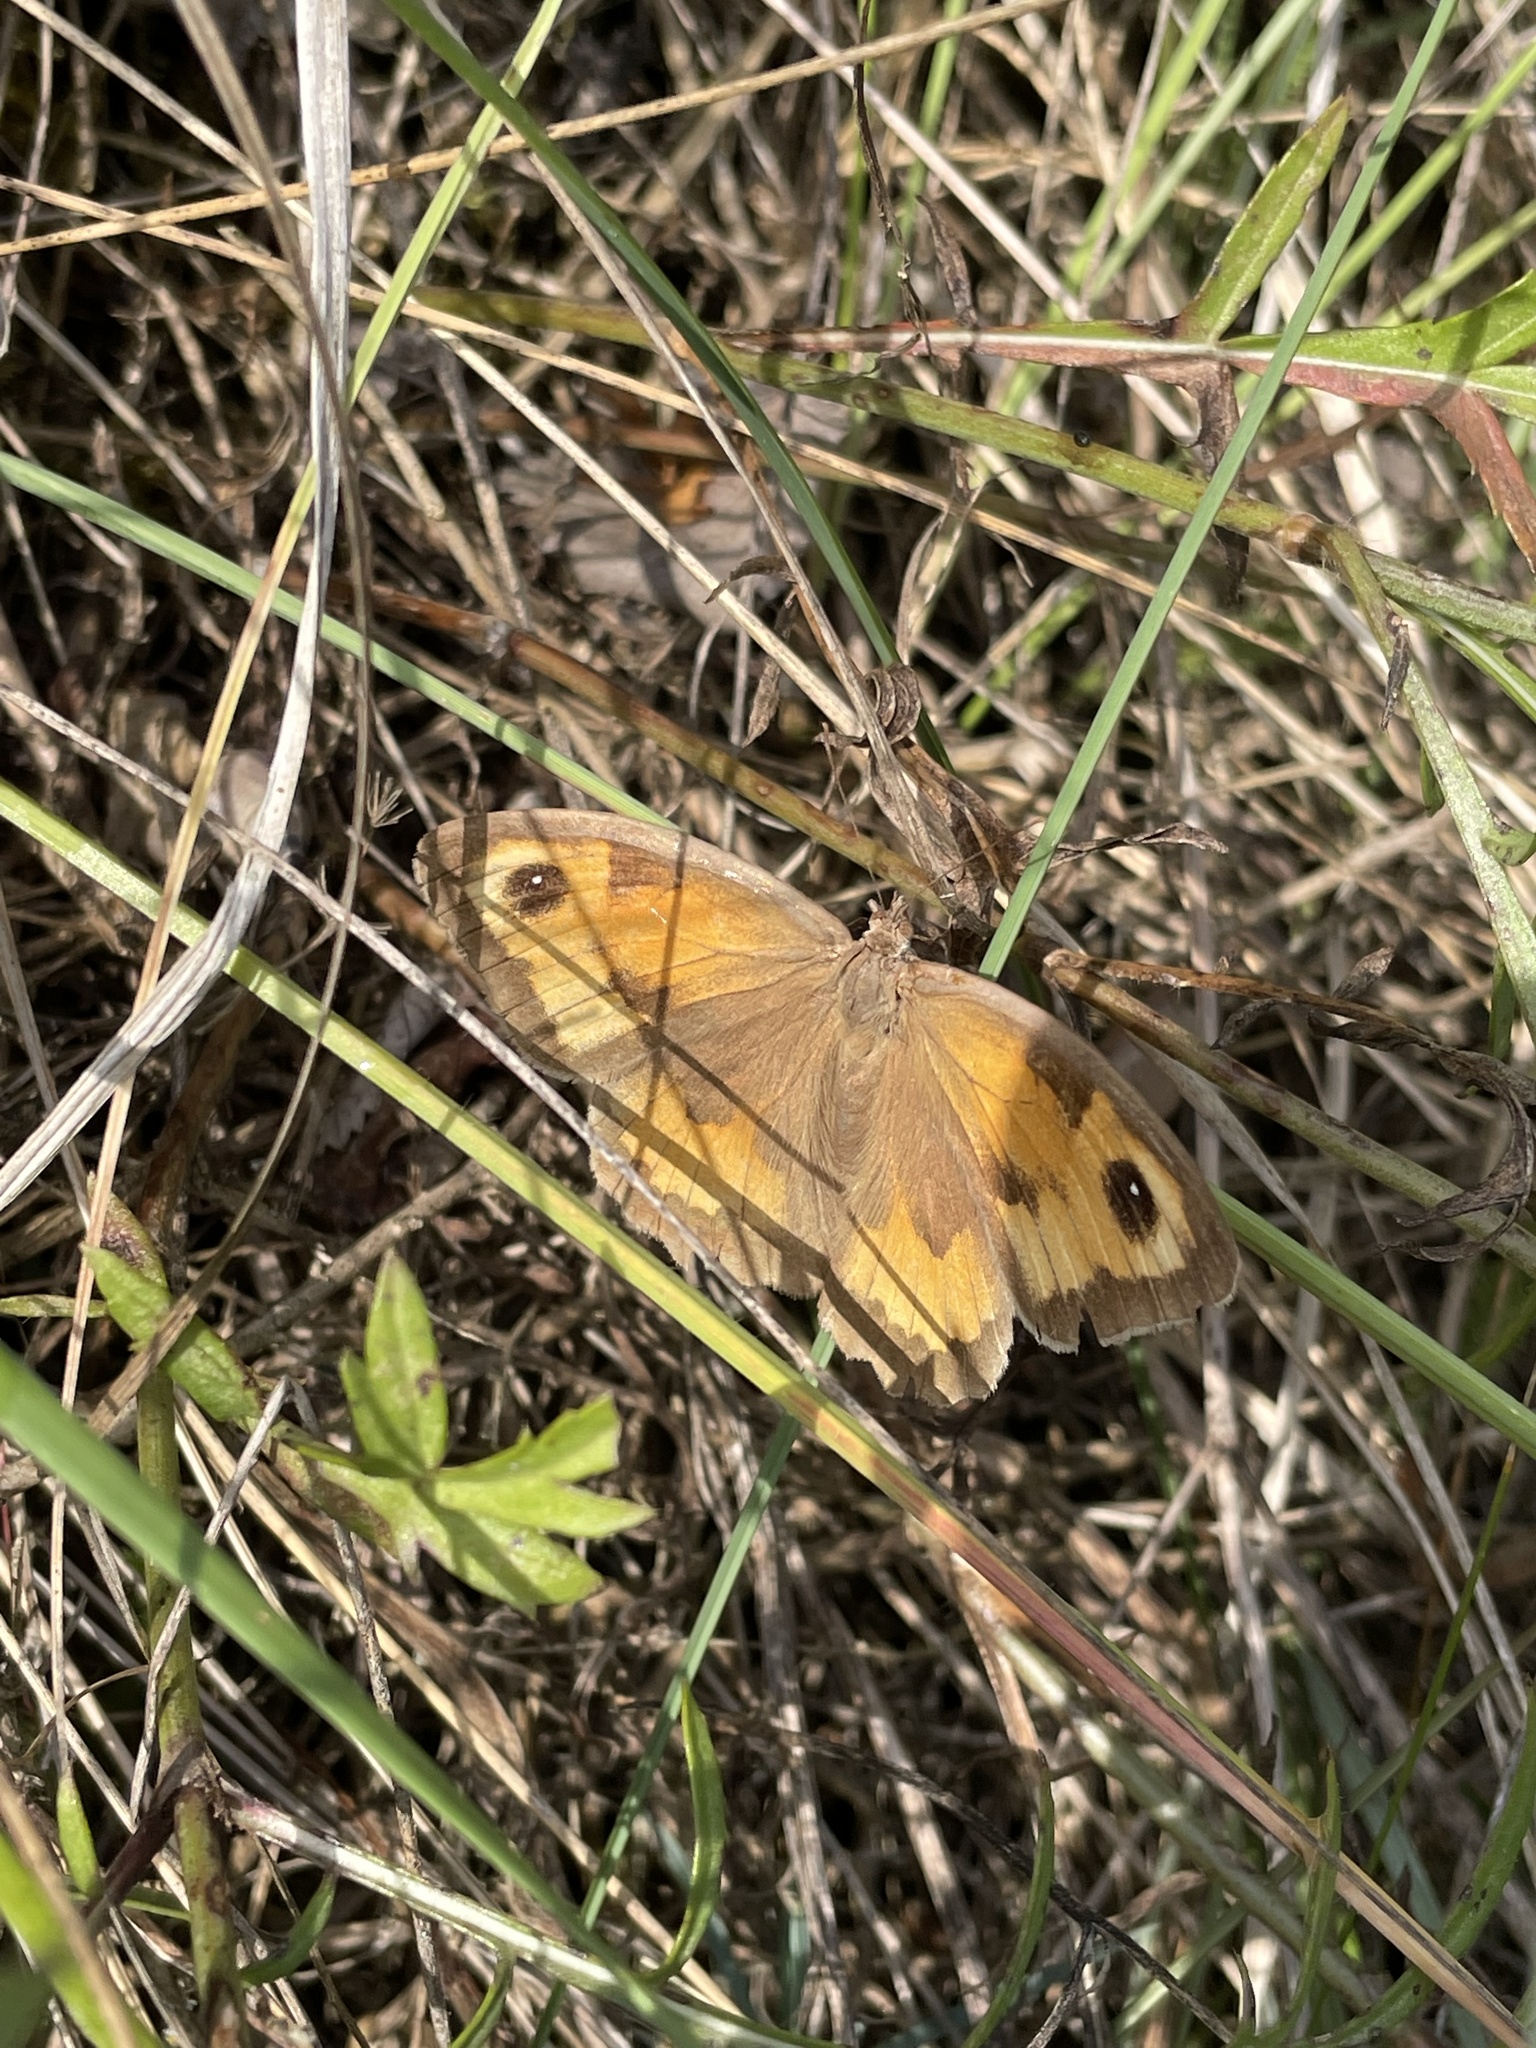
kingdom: Animalia
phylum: Arthropoda
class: Insecta
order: Lepidoptera
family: Nymphalidae
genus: Maniola
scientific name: Maniola jurtina
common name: Meadow brown
